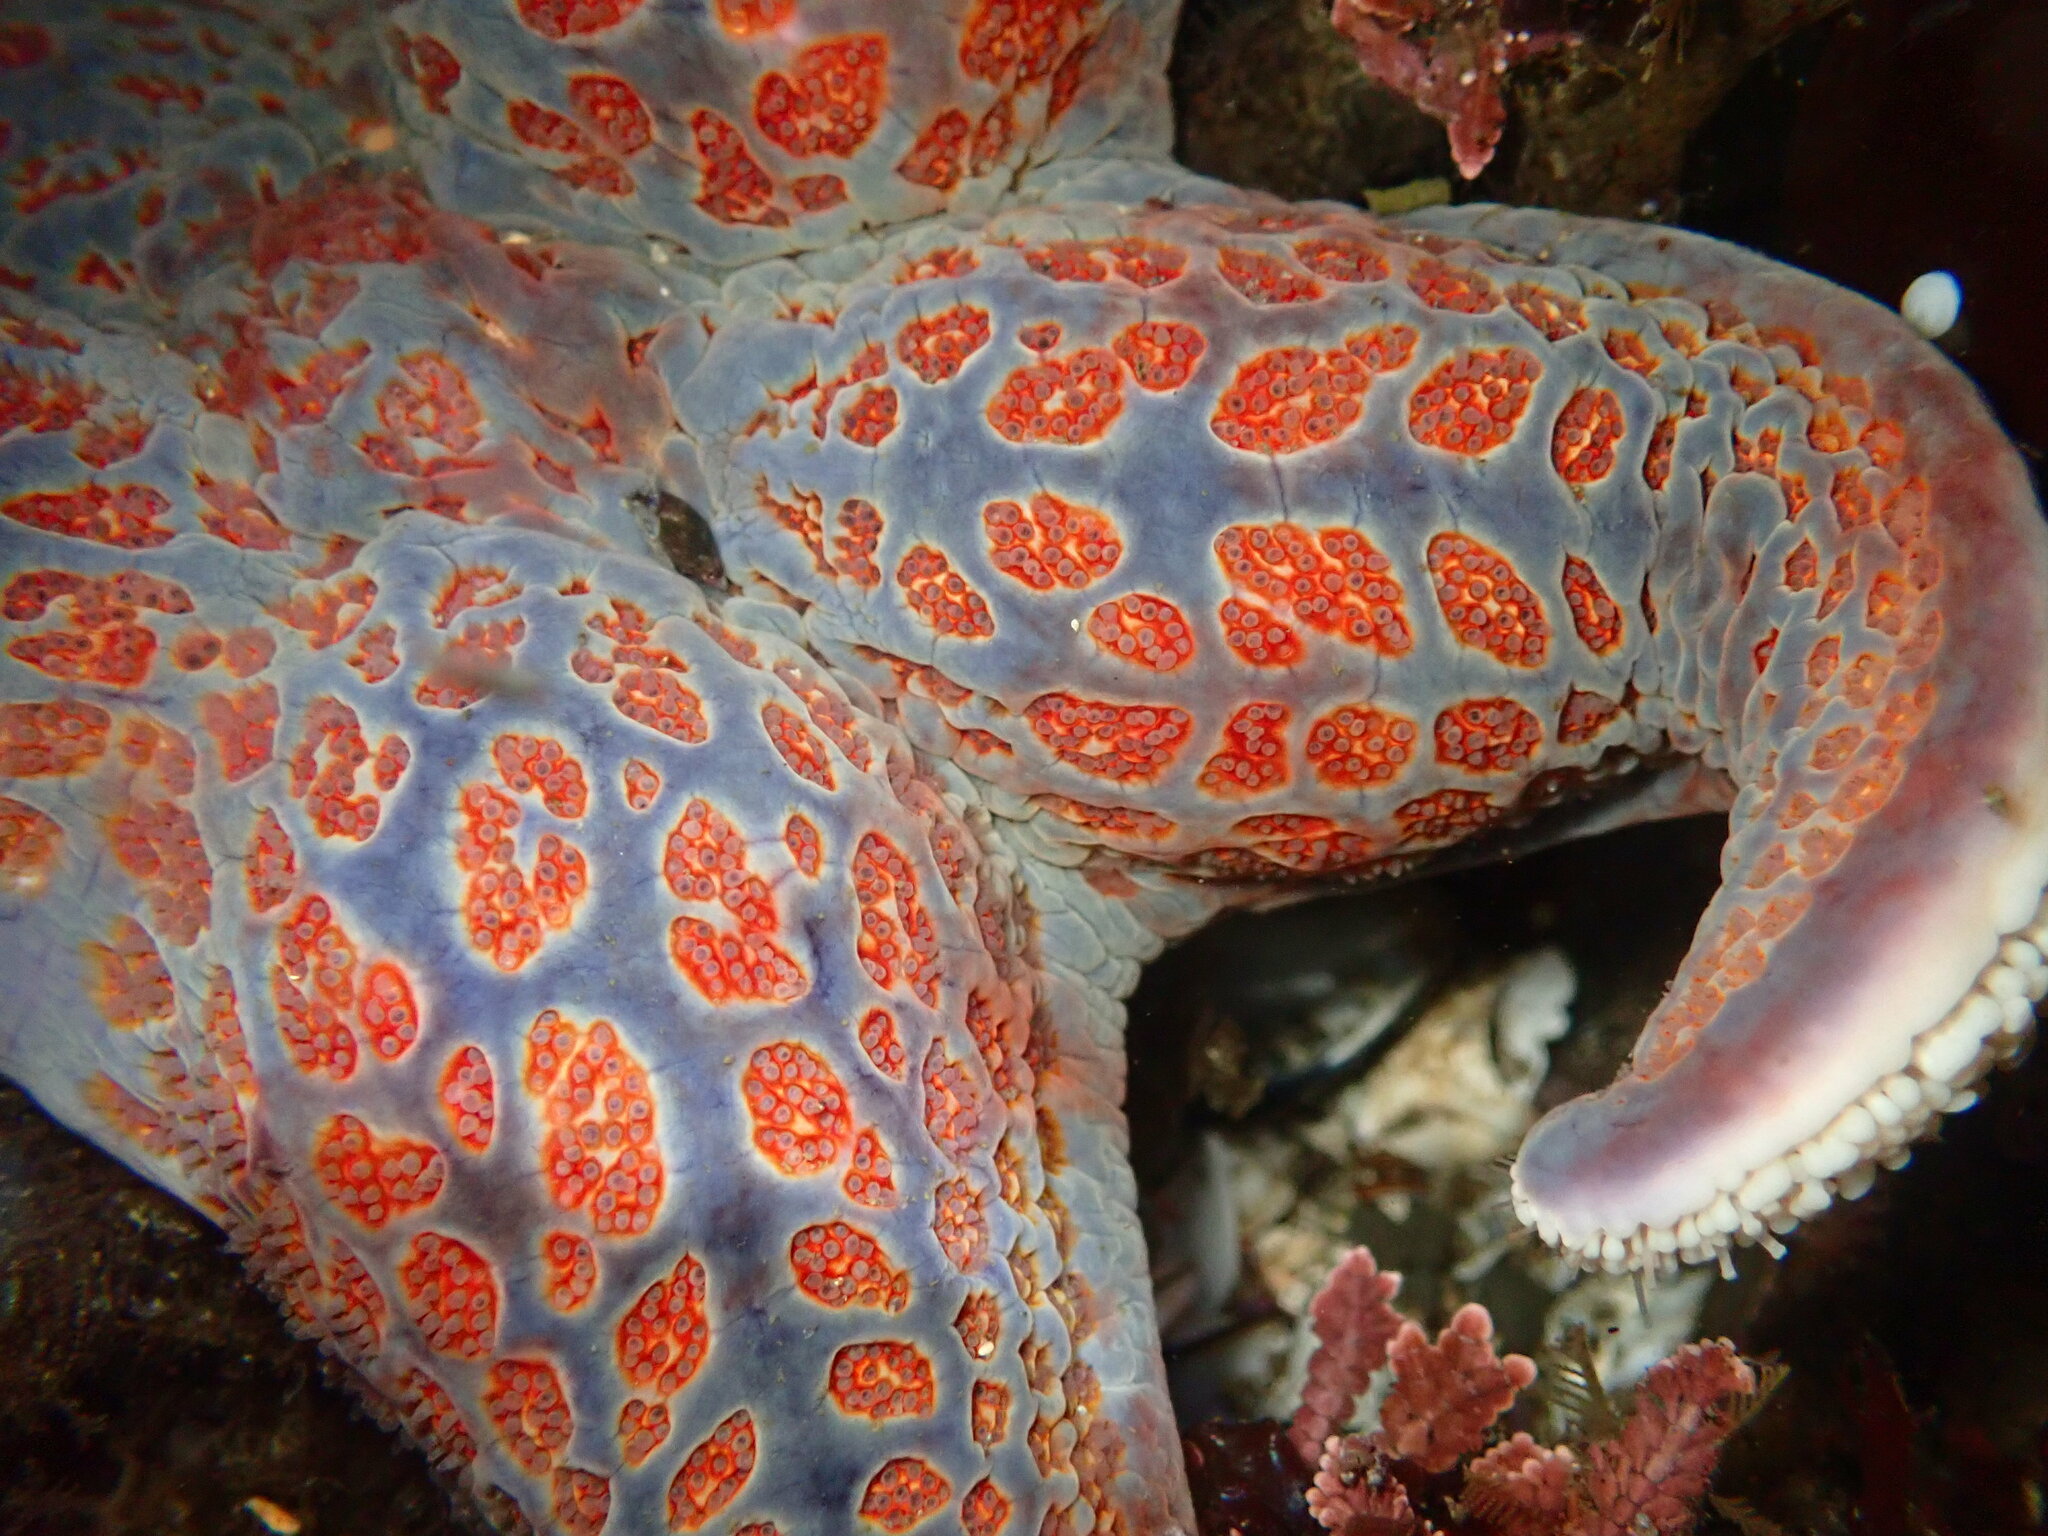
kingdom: Animalia
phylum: Echinodermata
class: Asteroidea
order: Valvatida
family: Asteropseidae
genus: Dermasterias
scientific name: Dermasterias imbricata
